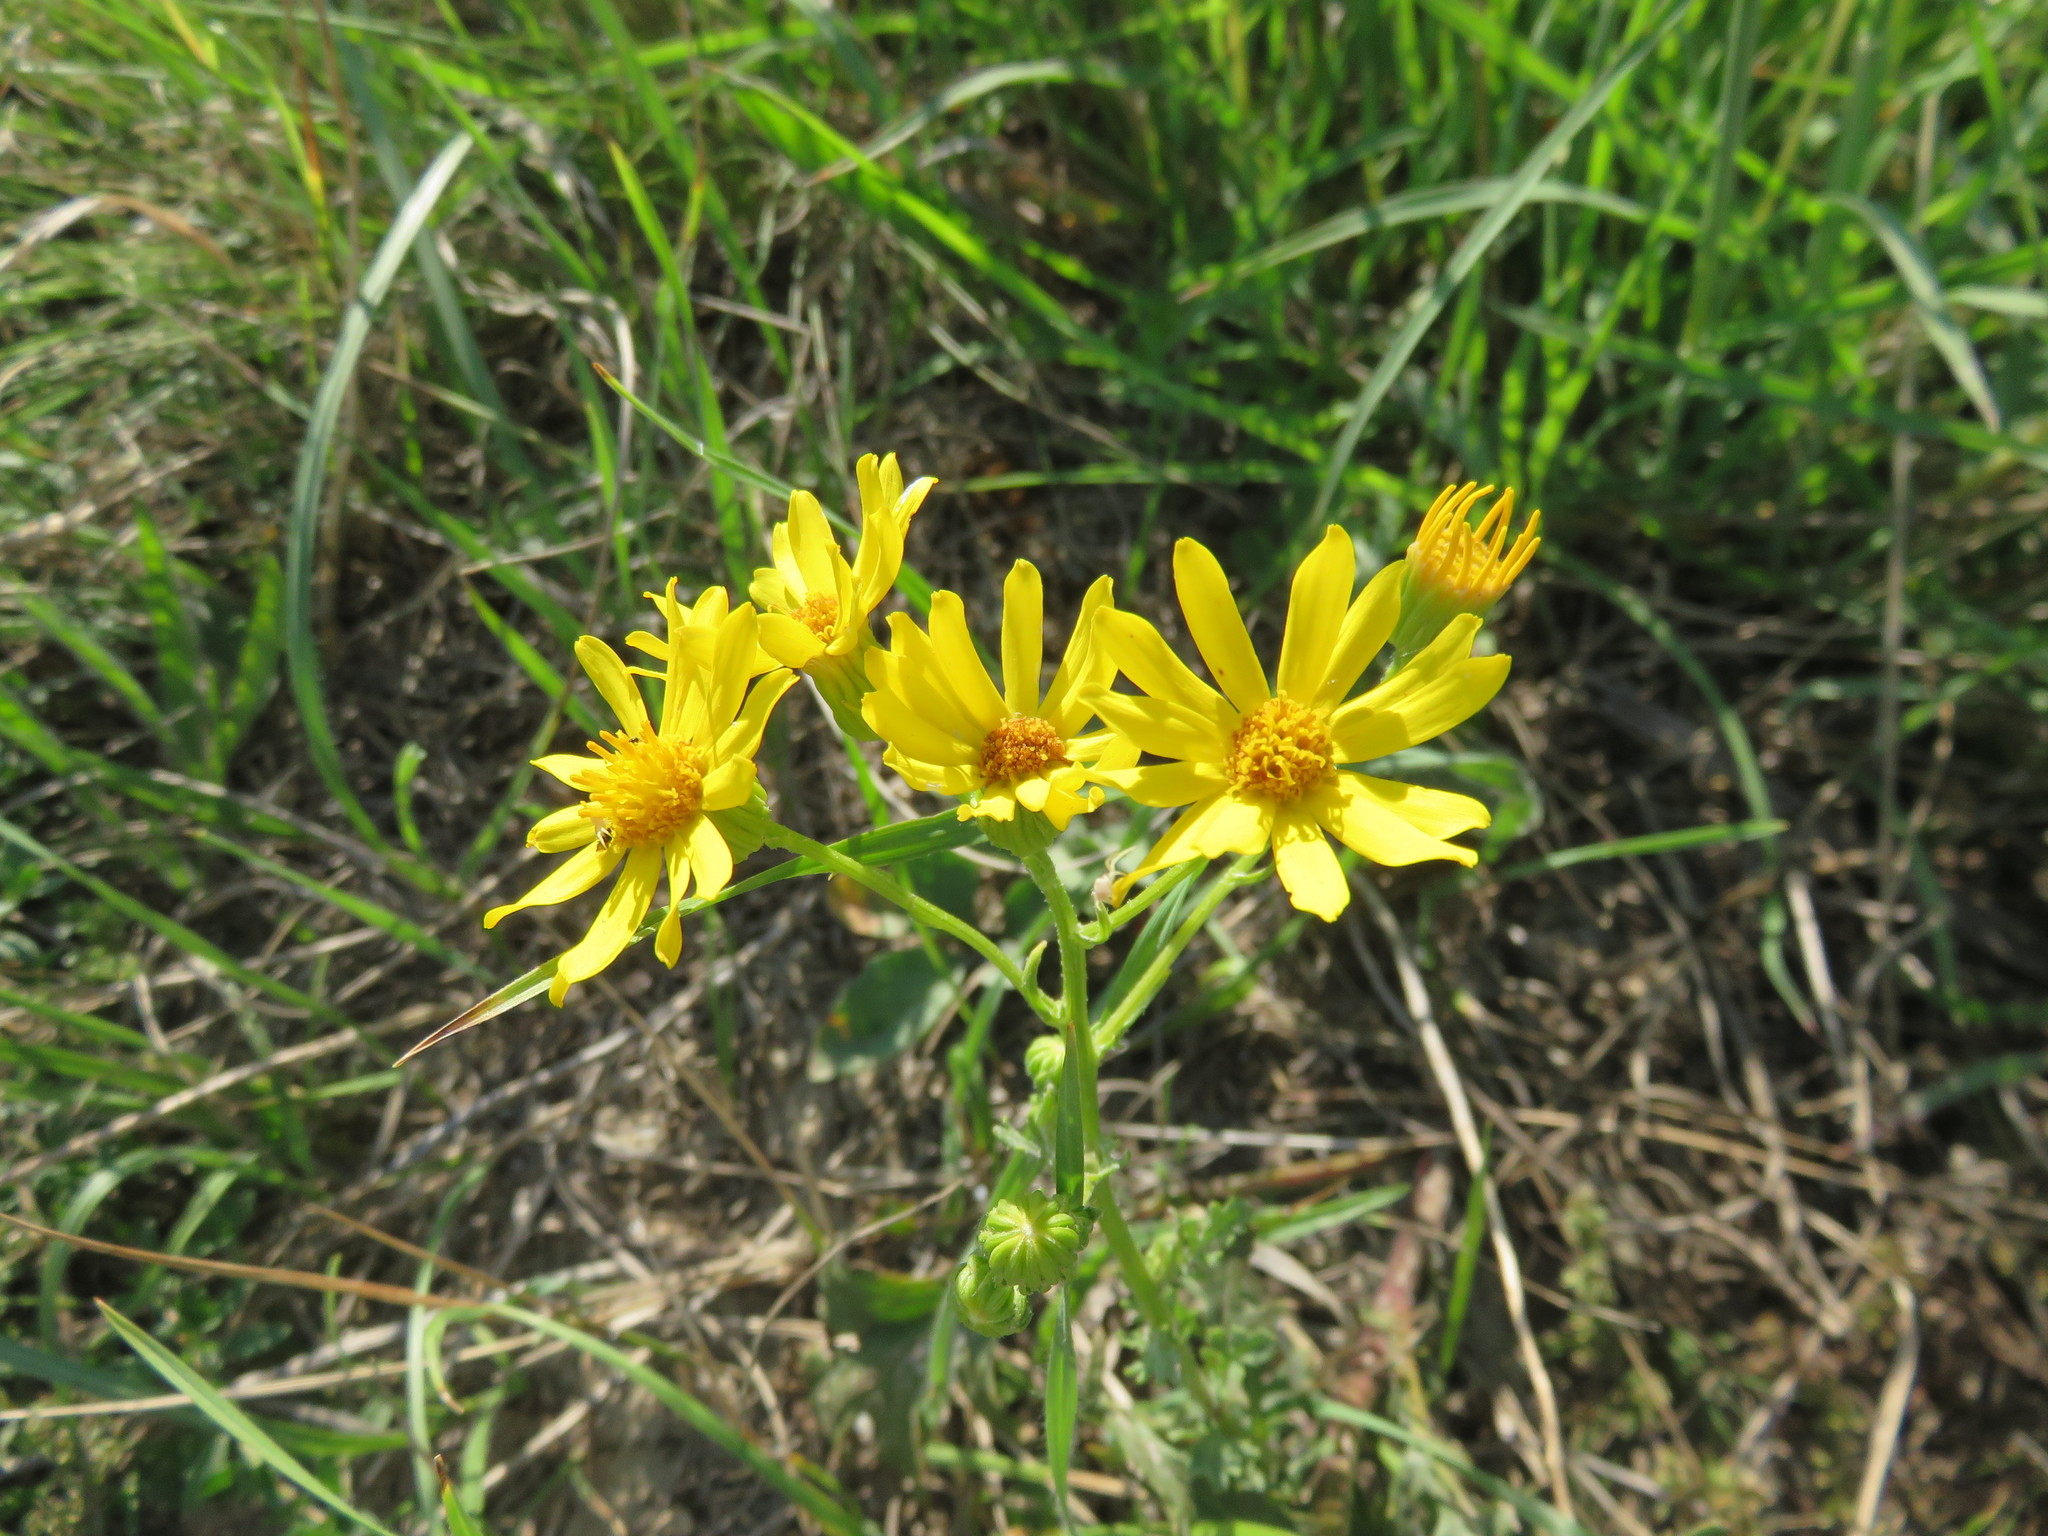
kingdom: Plantae
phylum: Tracheophyta
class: Magnoliopsida
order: Asterales
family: Asteraceae
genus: Jacobaea
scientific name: Jacobaea vulgaris
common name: Stinking willie
